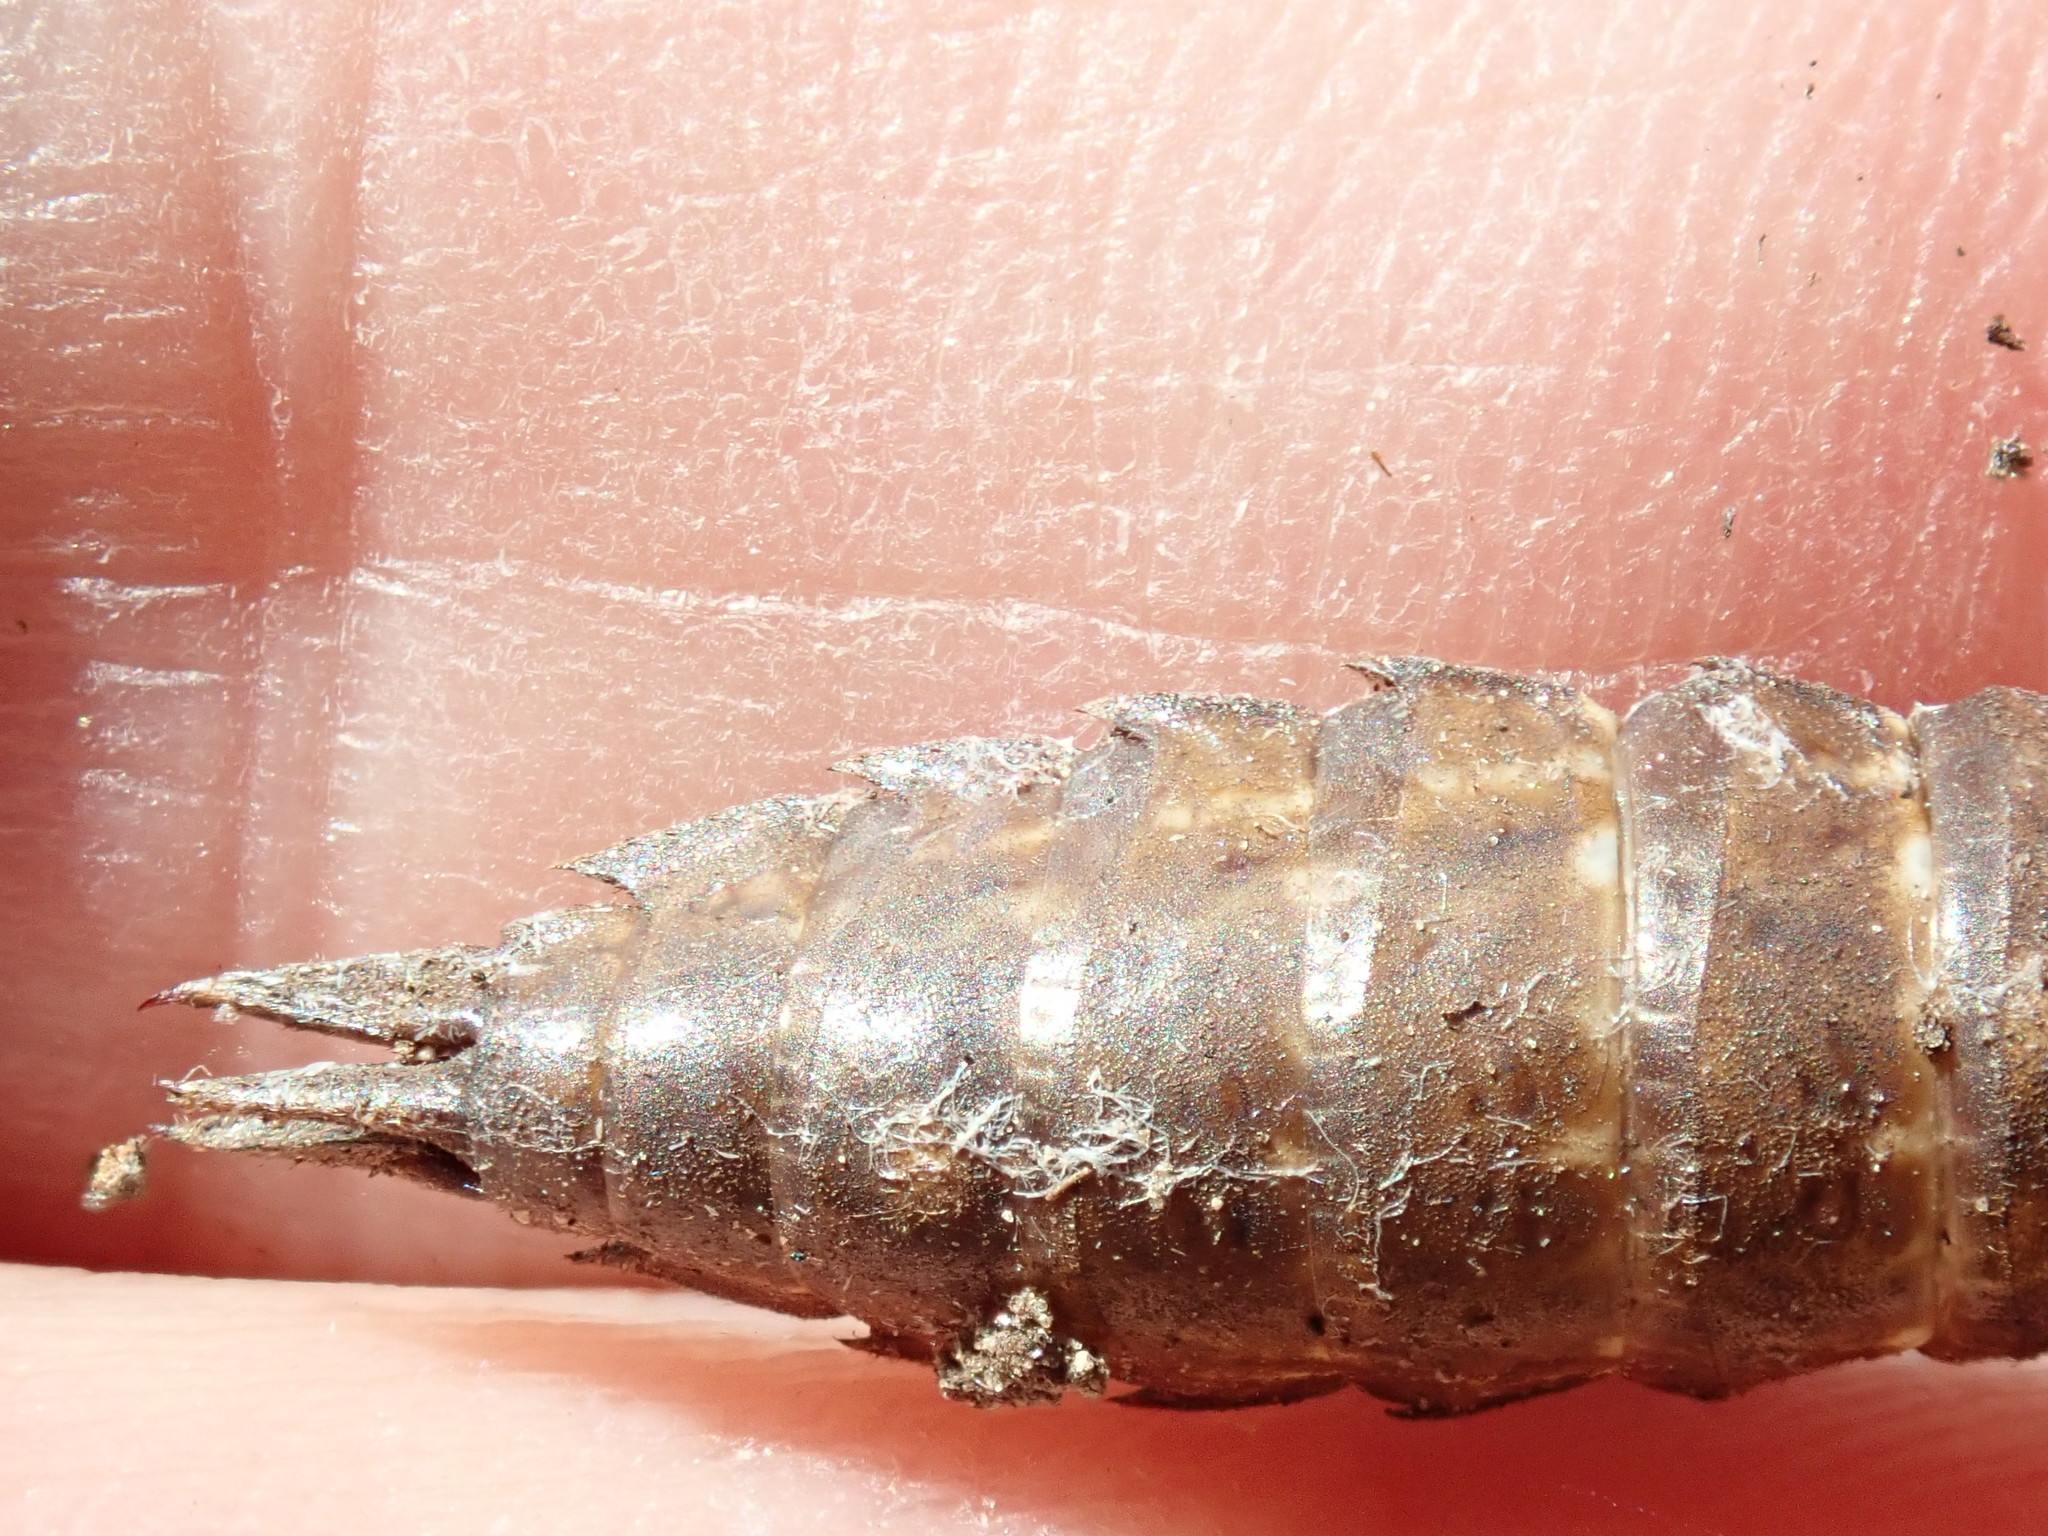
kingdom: Animalia
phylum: Arthropoda
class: Insecta
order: Odonata
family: Aeshnidae
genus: Boyeria
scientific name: Boyeria vinosa
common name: Fawn darner
